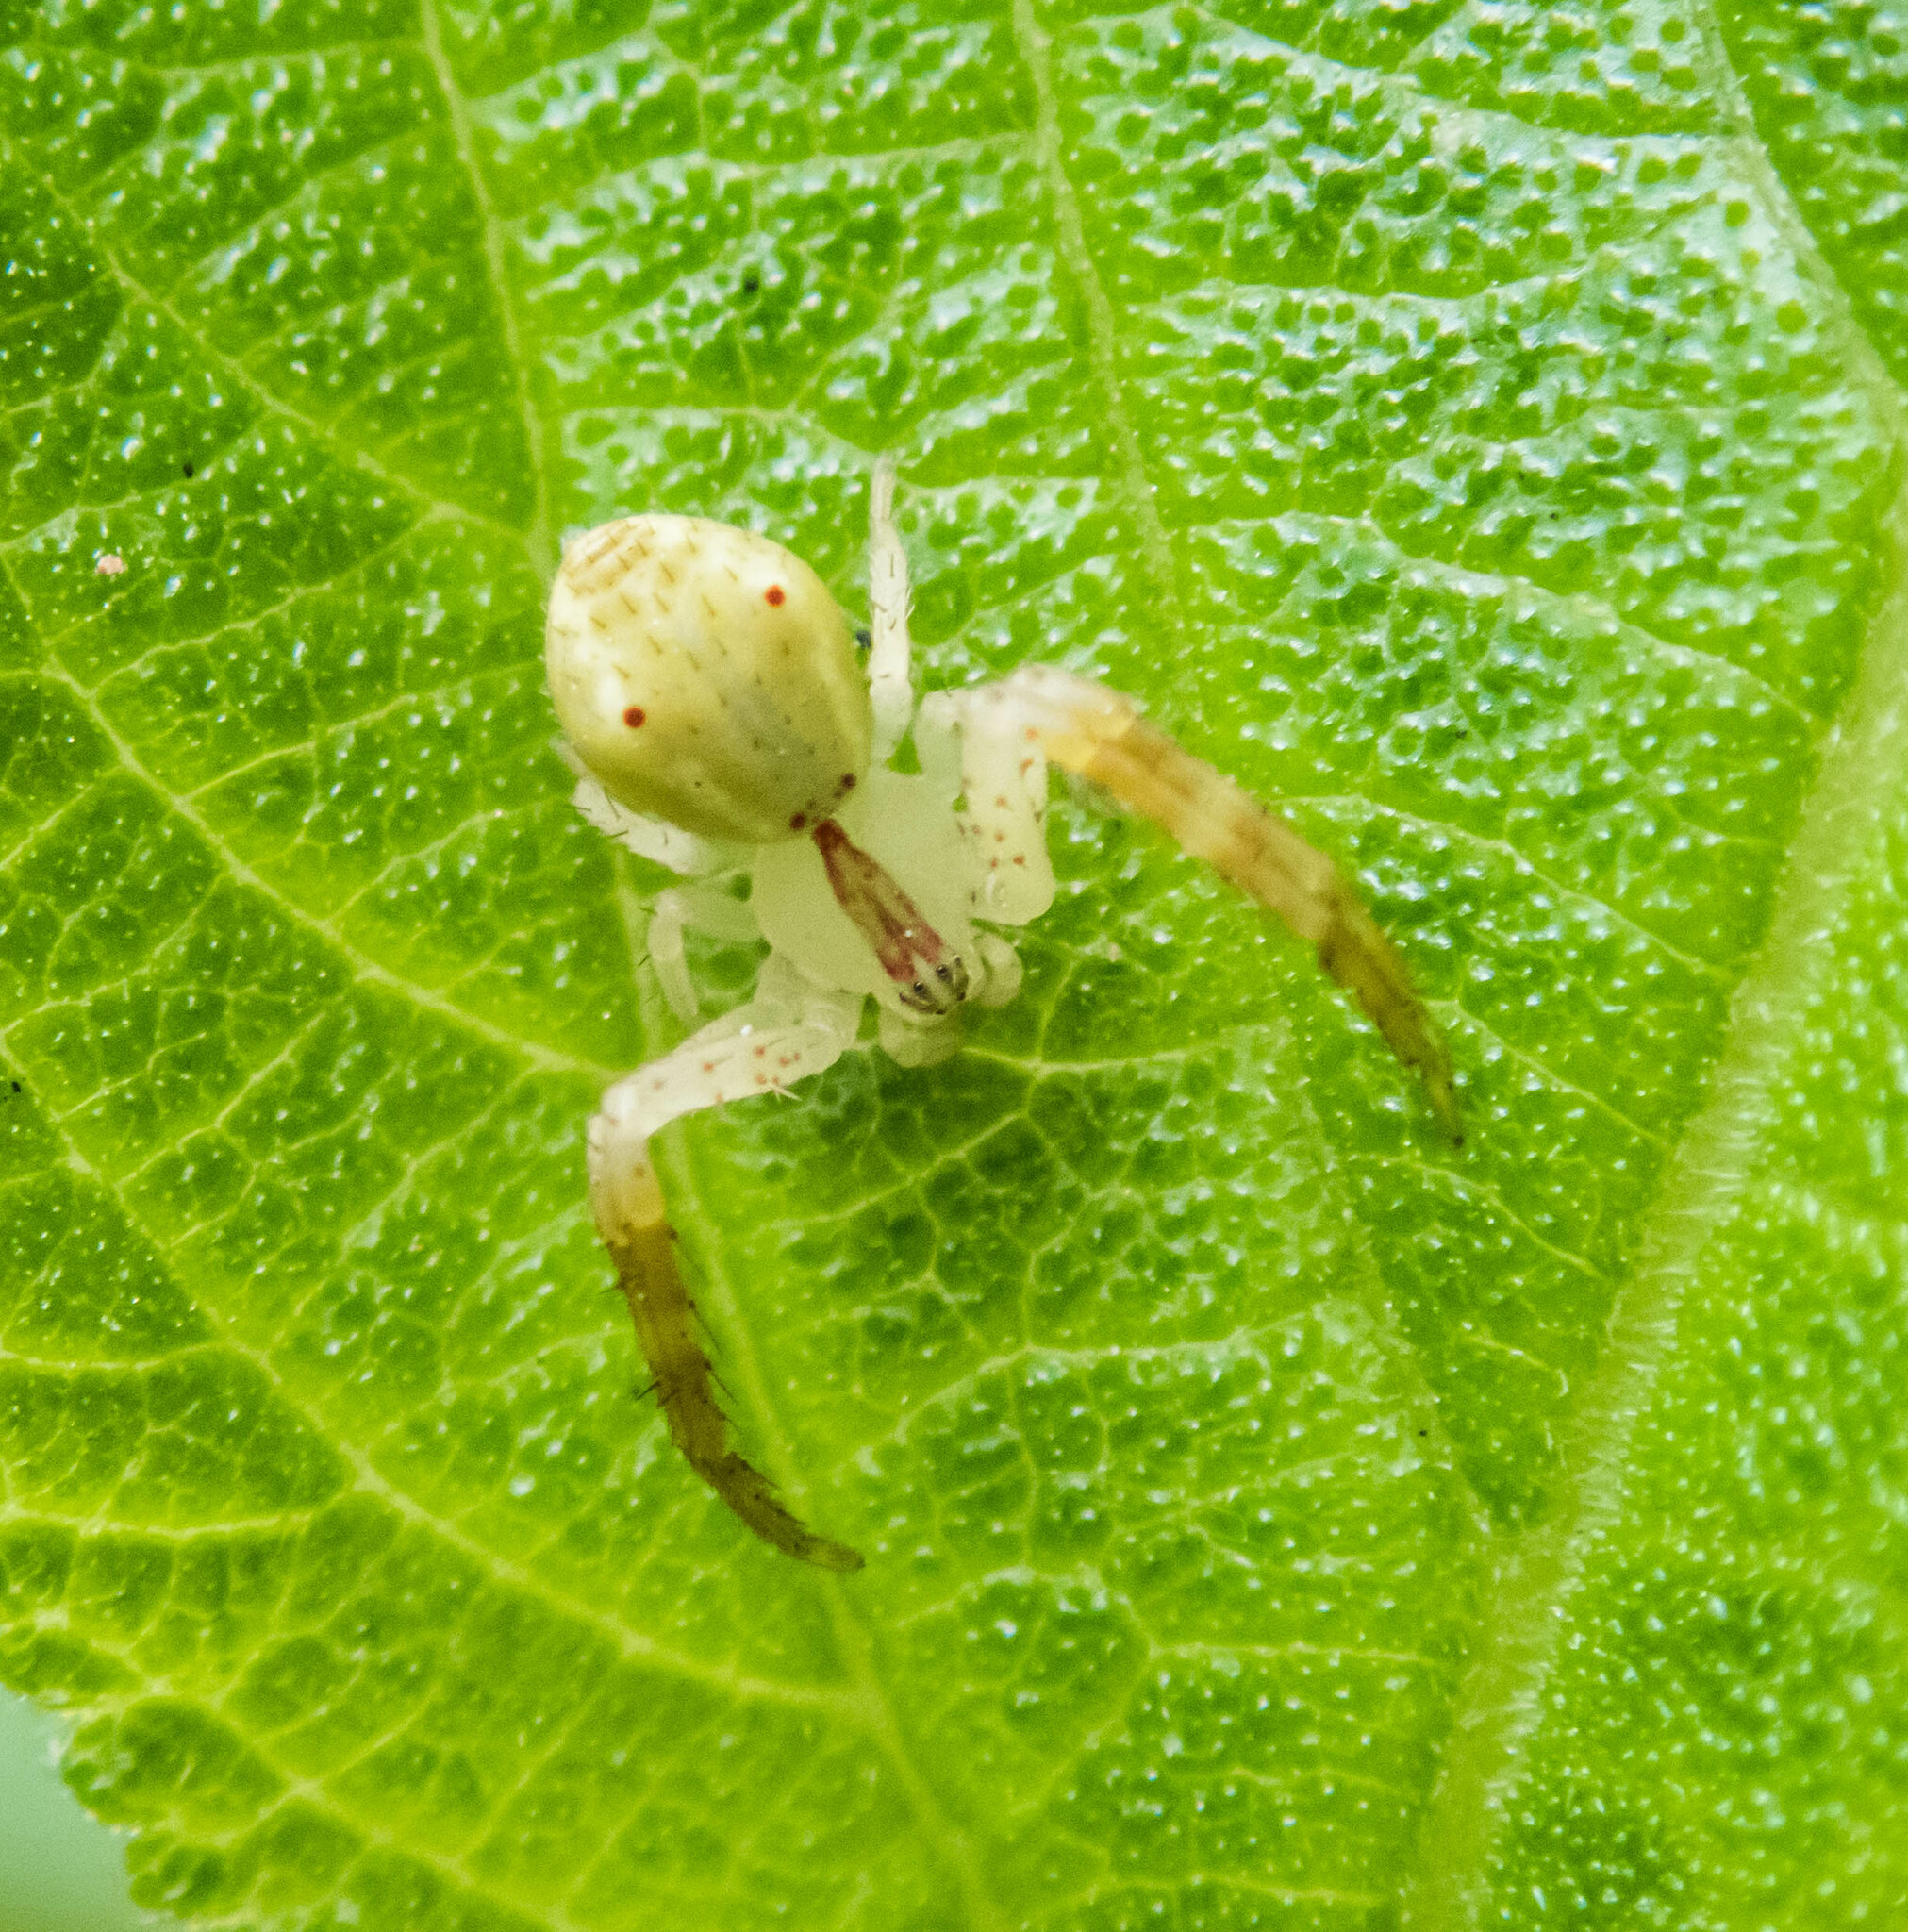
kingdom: Animalia
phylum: Arthropoda
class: Arachnida
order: Araneae
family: Thomisidae
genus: Sidymella
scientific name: Sidymella rubrosignata
